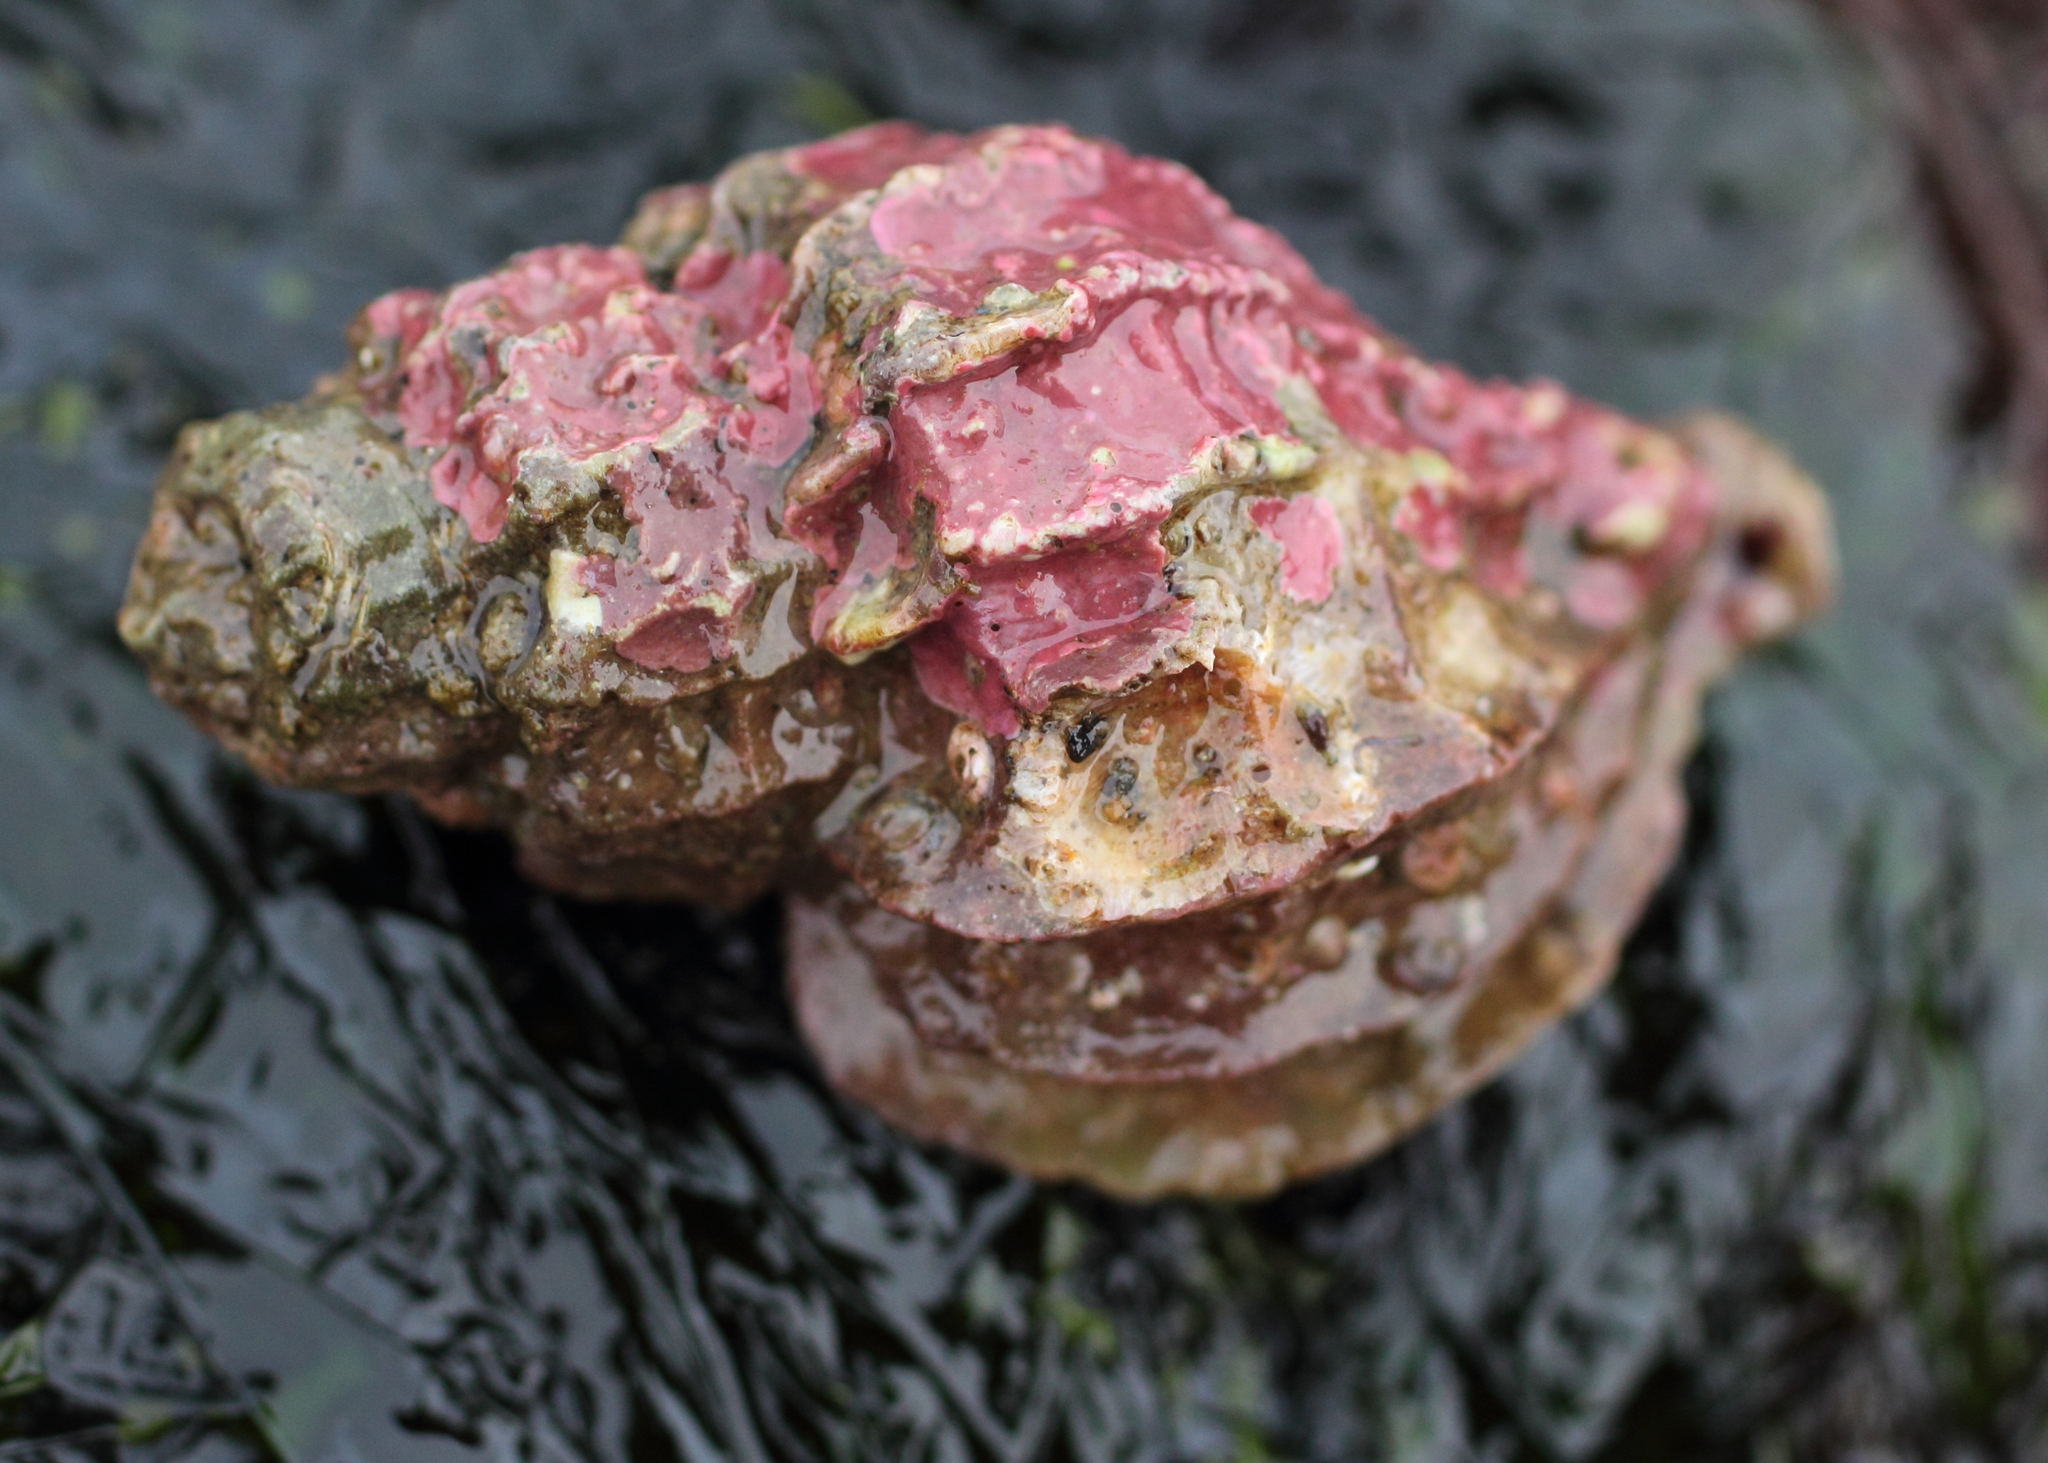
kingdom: Animalia
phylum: Mollusca
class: Gastropoda
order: Neogastropoda
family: Muricidae
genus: Scabrotrophon
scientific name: Scabrotrophon stuarti
